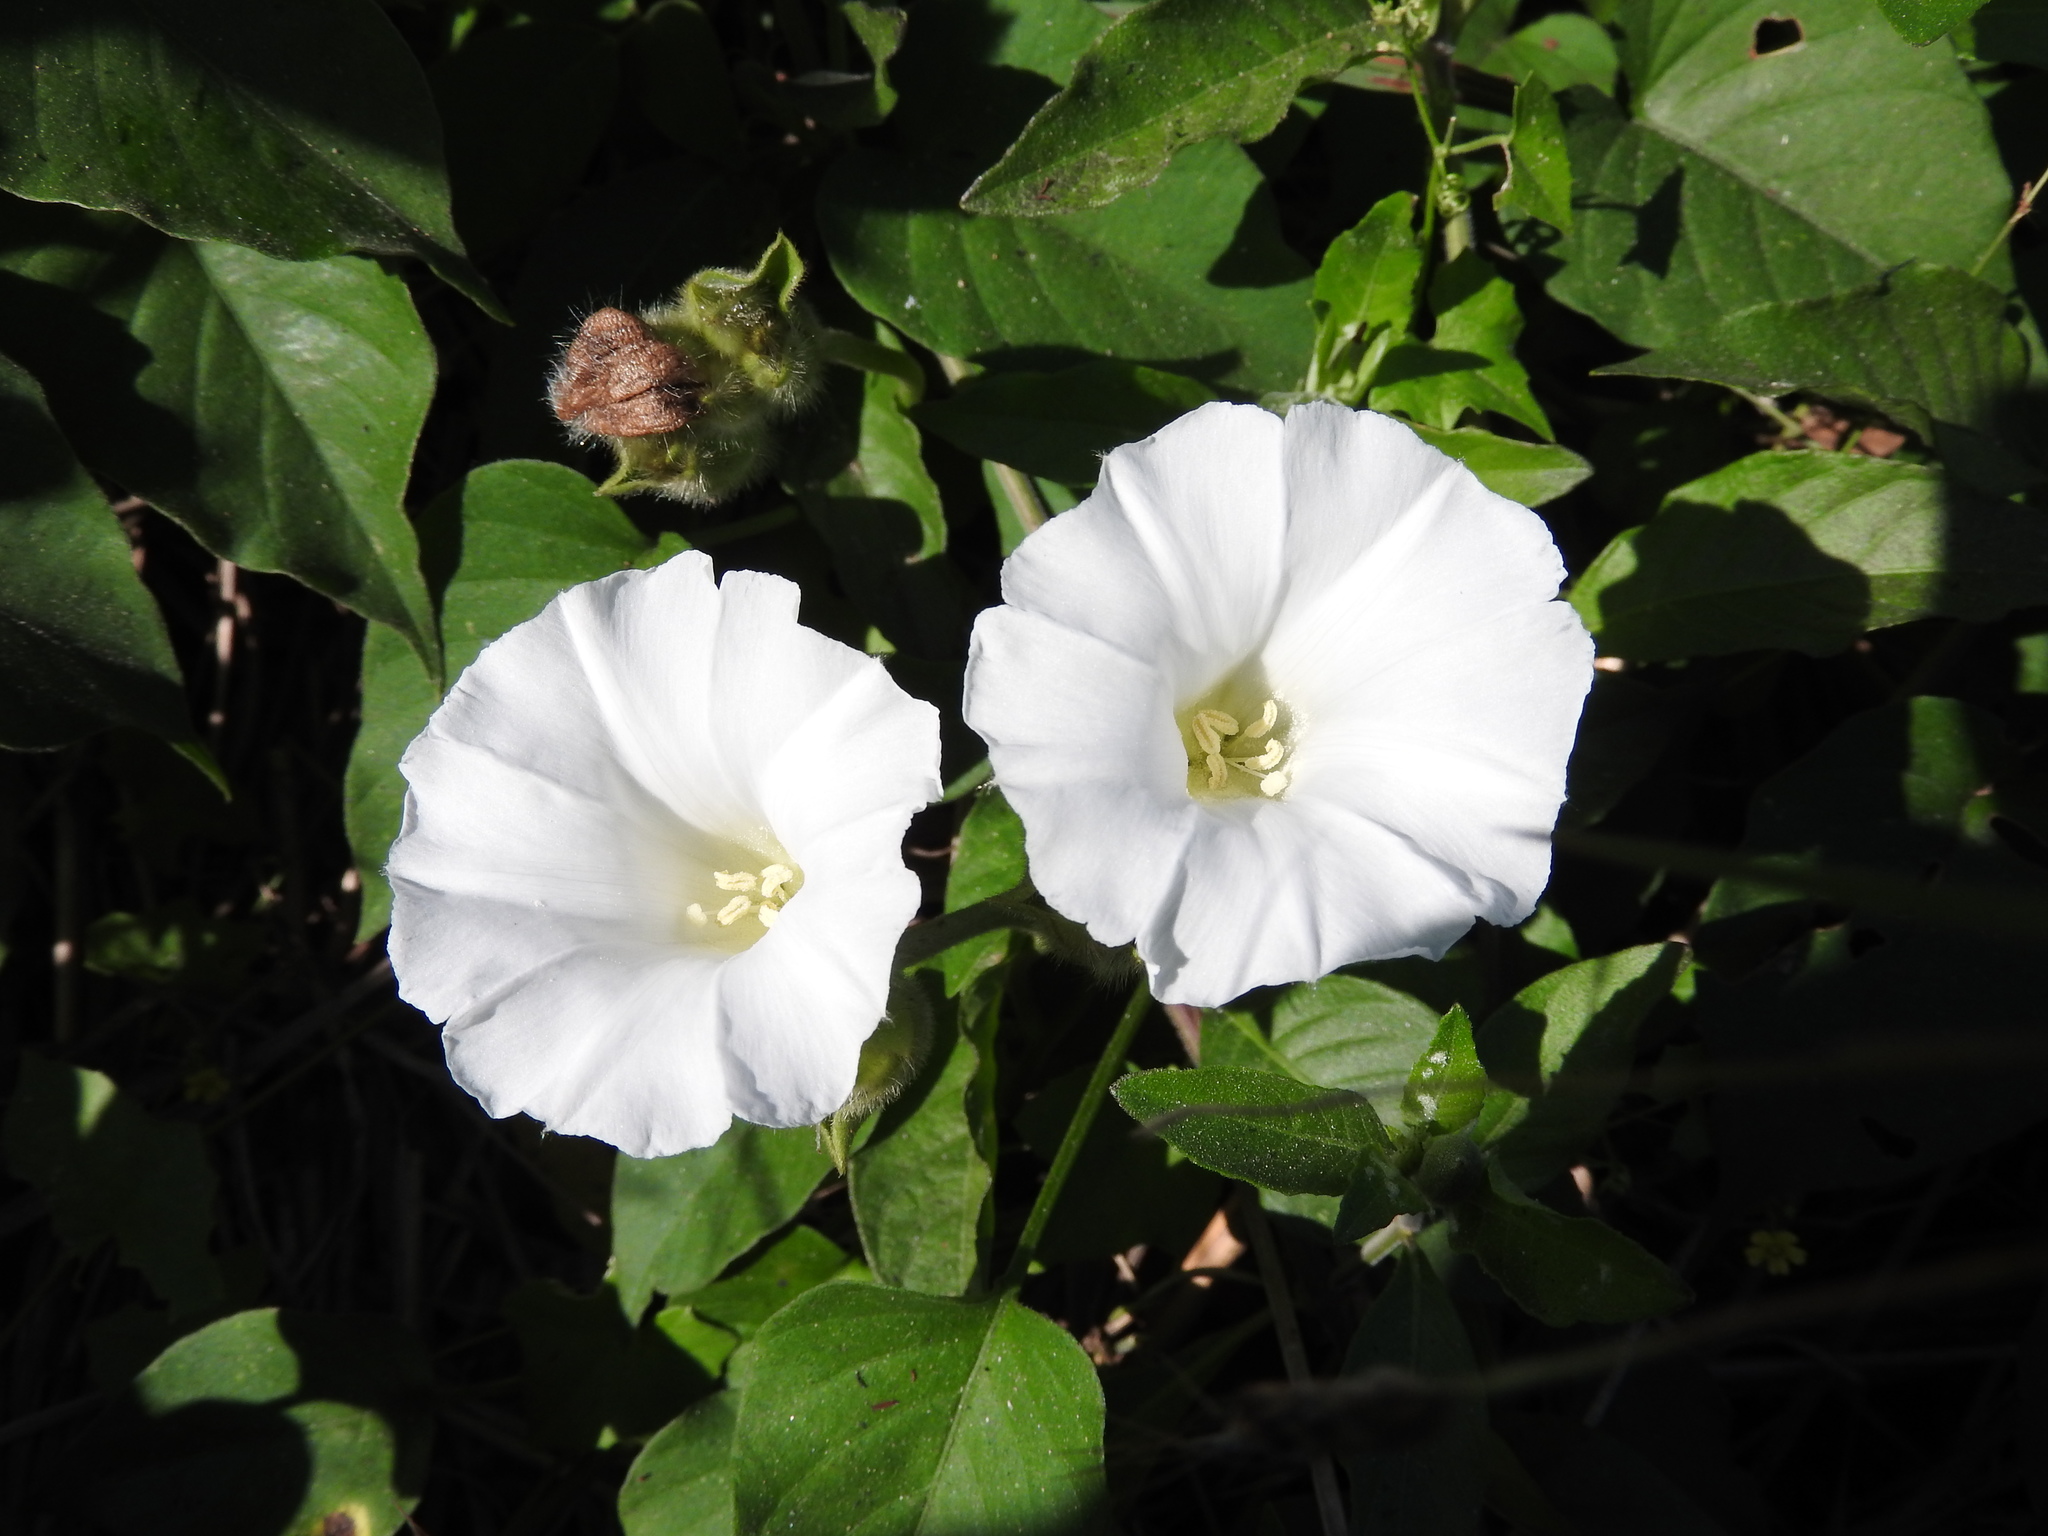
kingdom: Plantae
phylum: Tracheophyta
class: Magnoliopsida
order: Solanales
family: Convolvulaceae
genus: Odonellia
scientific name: Odonellia hirtiflora
